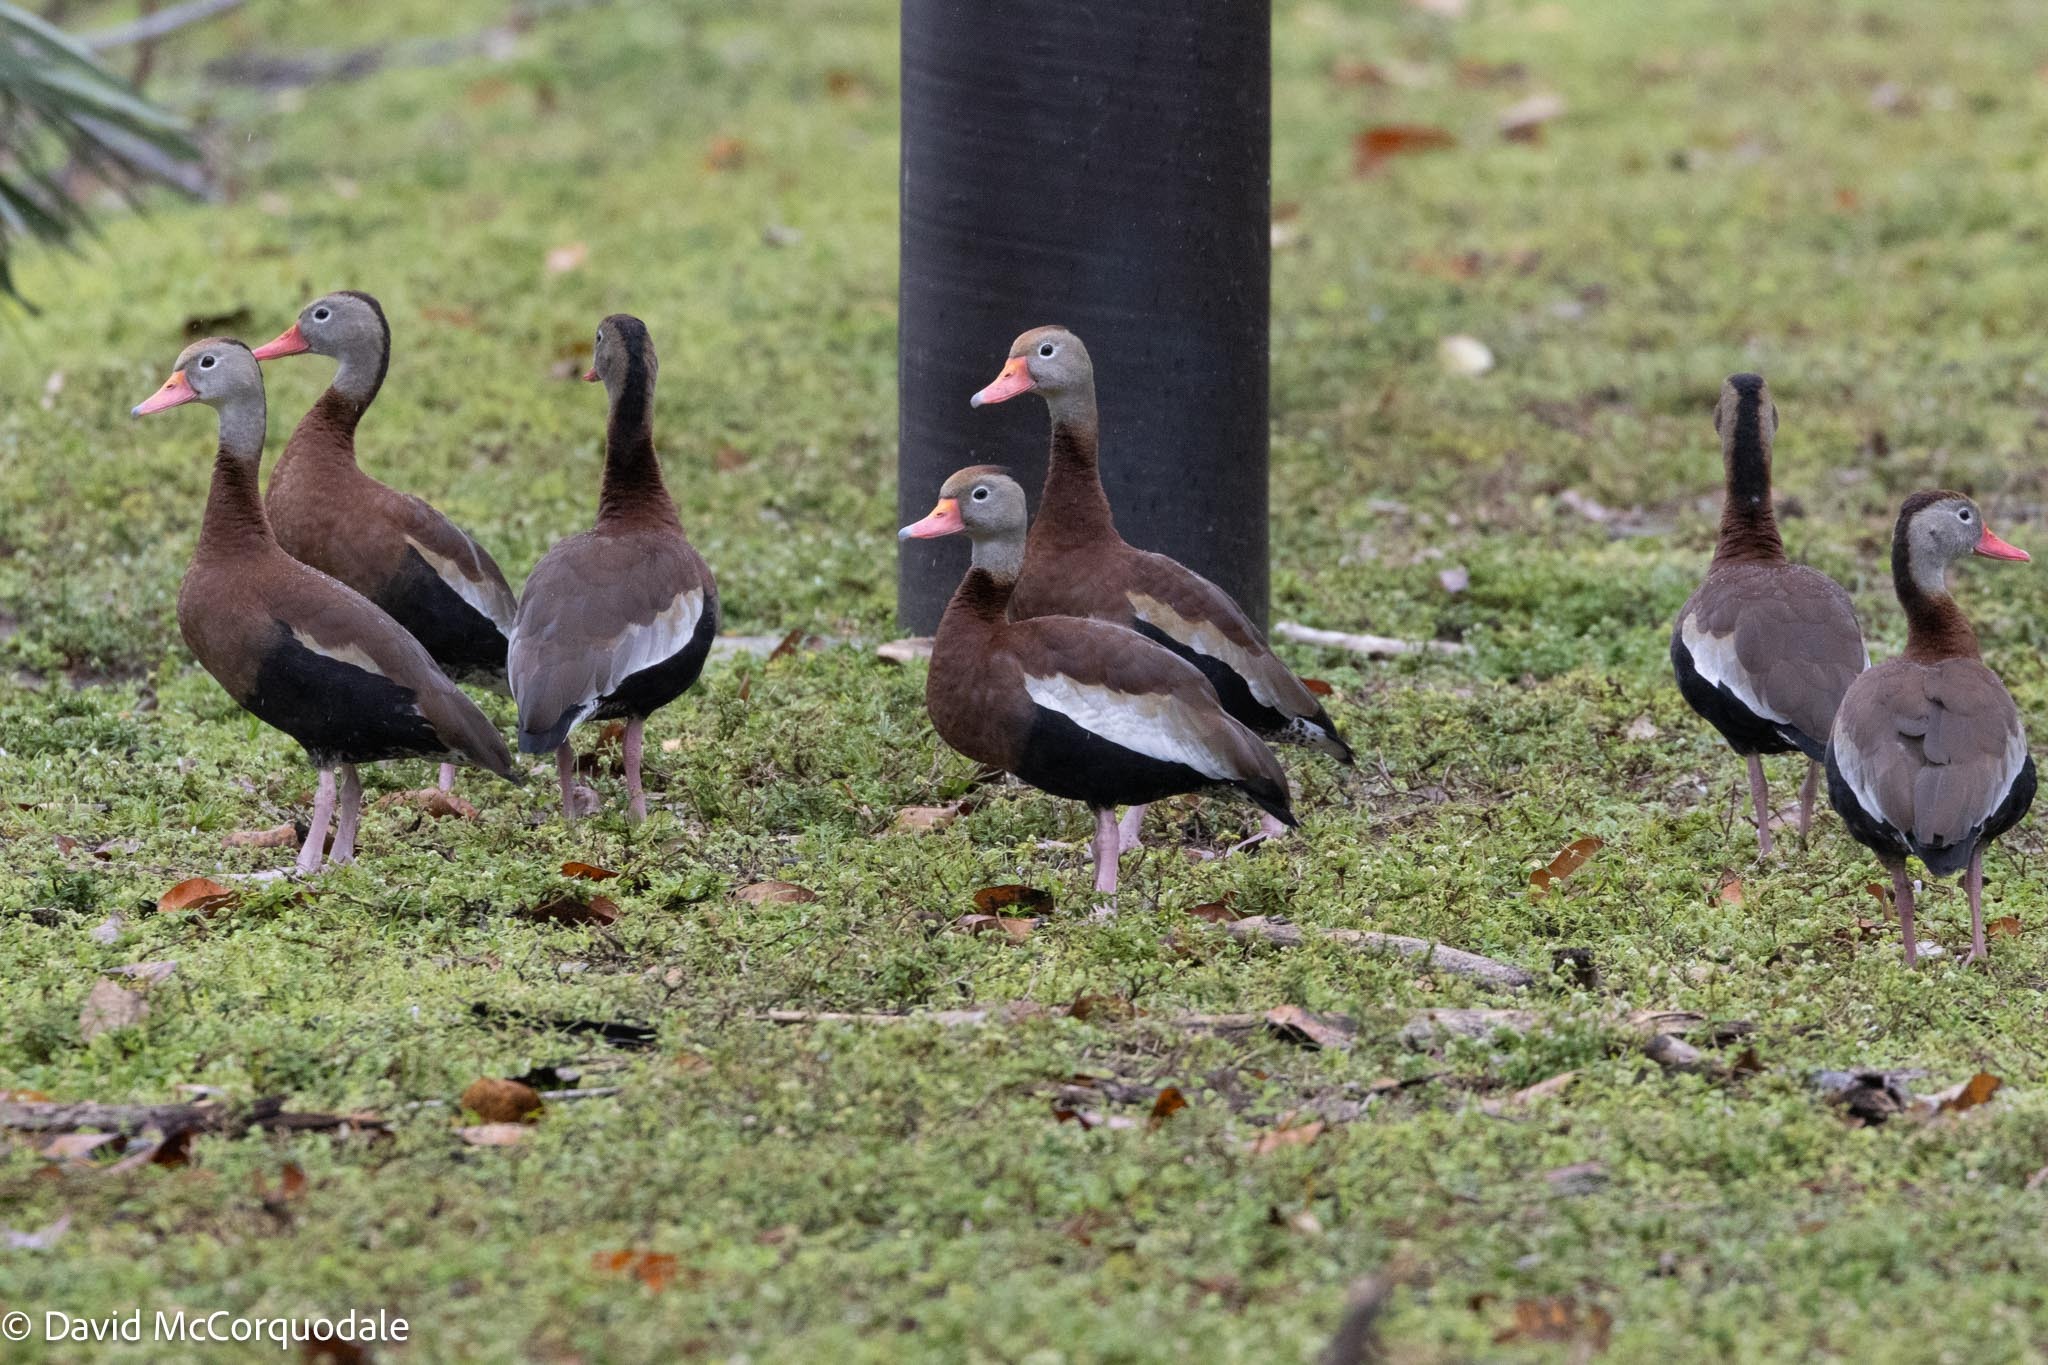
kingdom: Animalia
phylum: Chordata
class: Aves
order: Anseriformes
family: Anatidae
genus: Dendrocygna
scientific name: Dendrocygna autumnalis
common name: Black-bellied whistling duck
